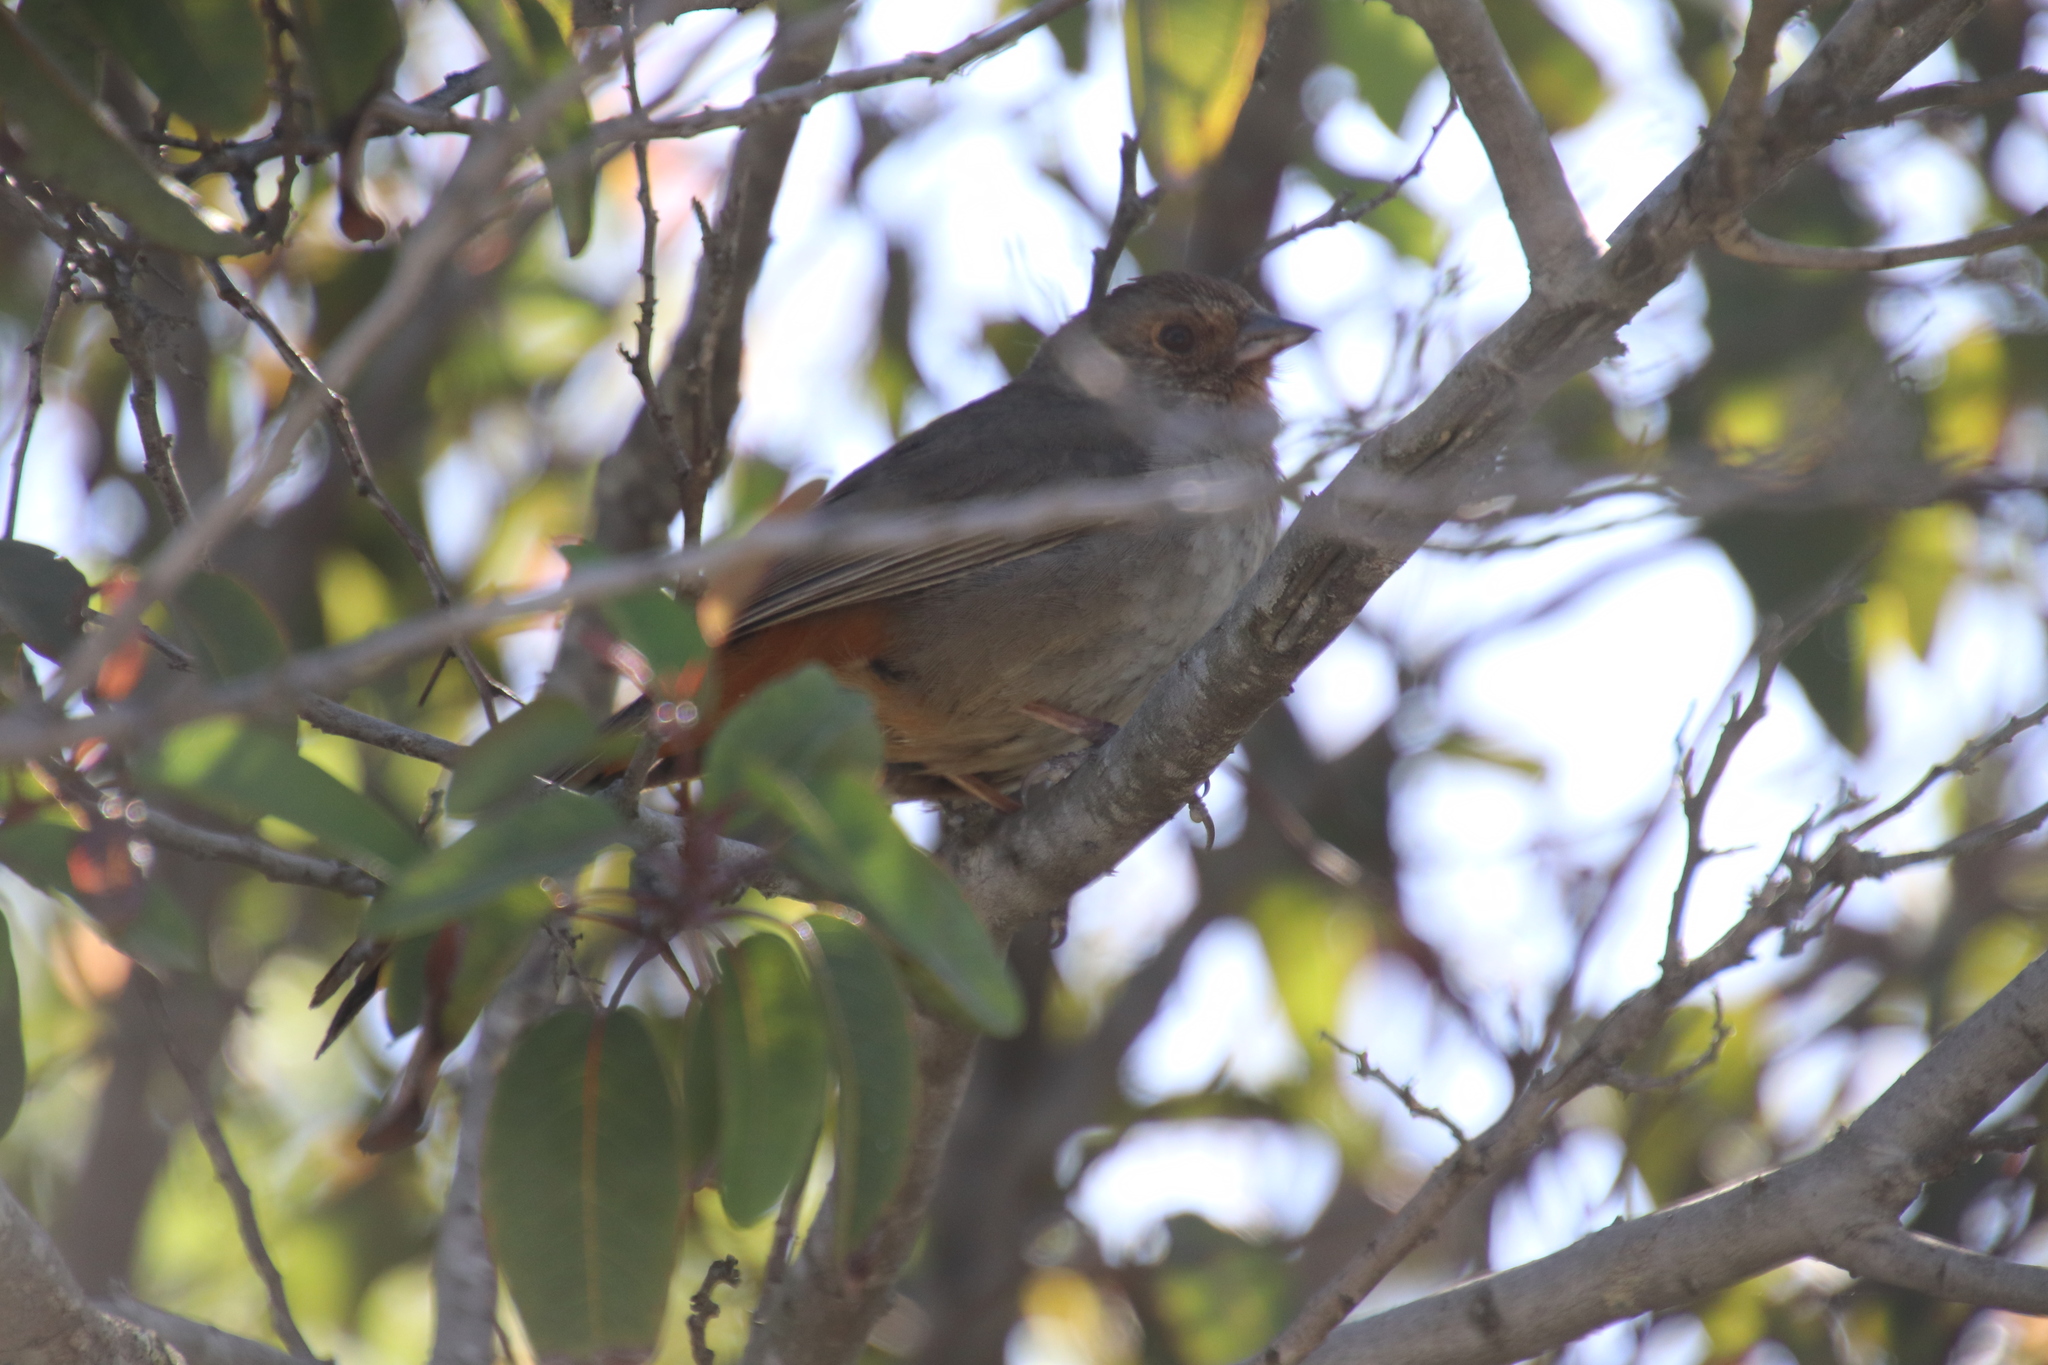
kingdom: Animalia
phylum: Chordata
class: Aves
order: Passeriformes
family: Passerellidae
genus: Melozone
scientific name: Melozone crissalis
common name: California towhee
